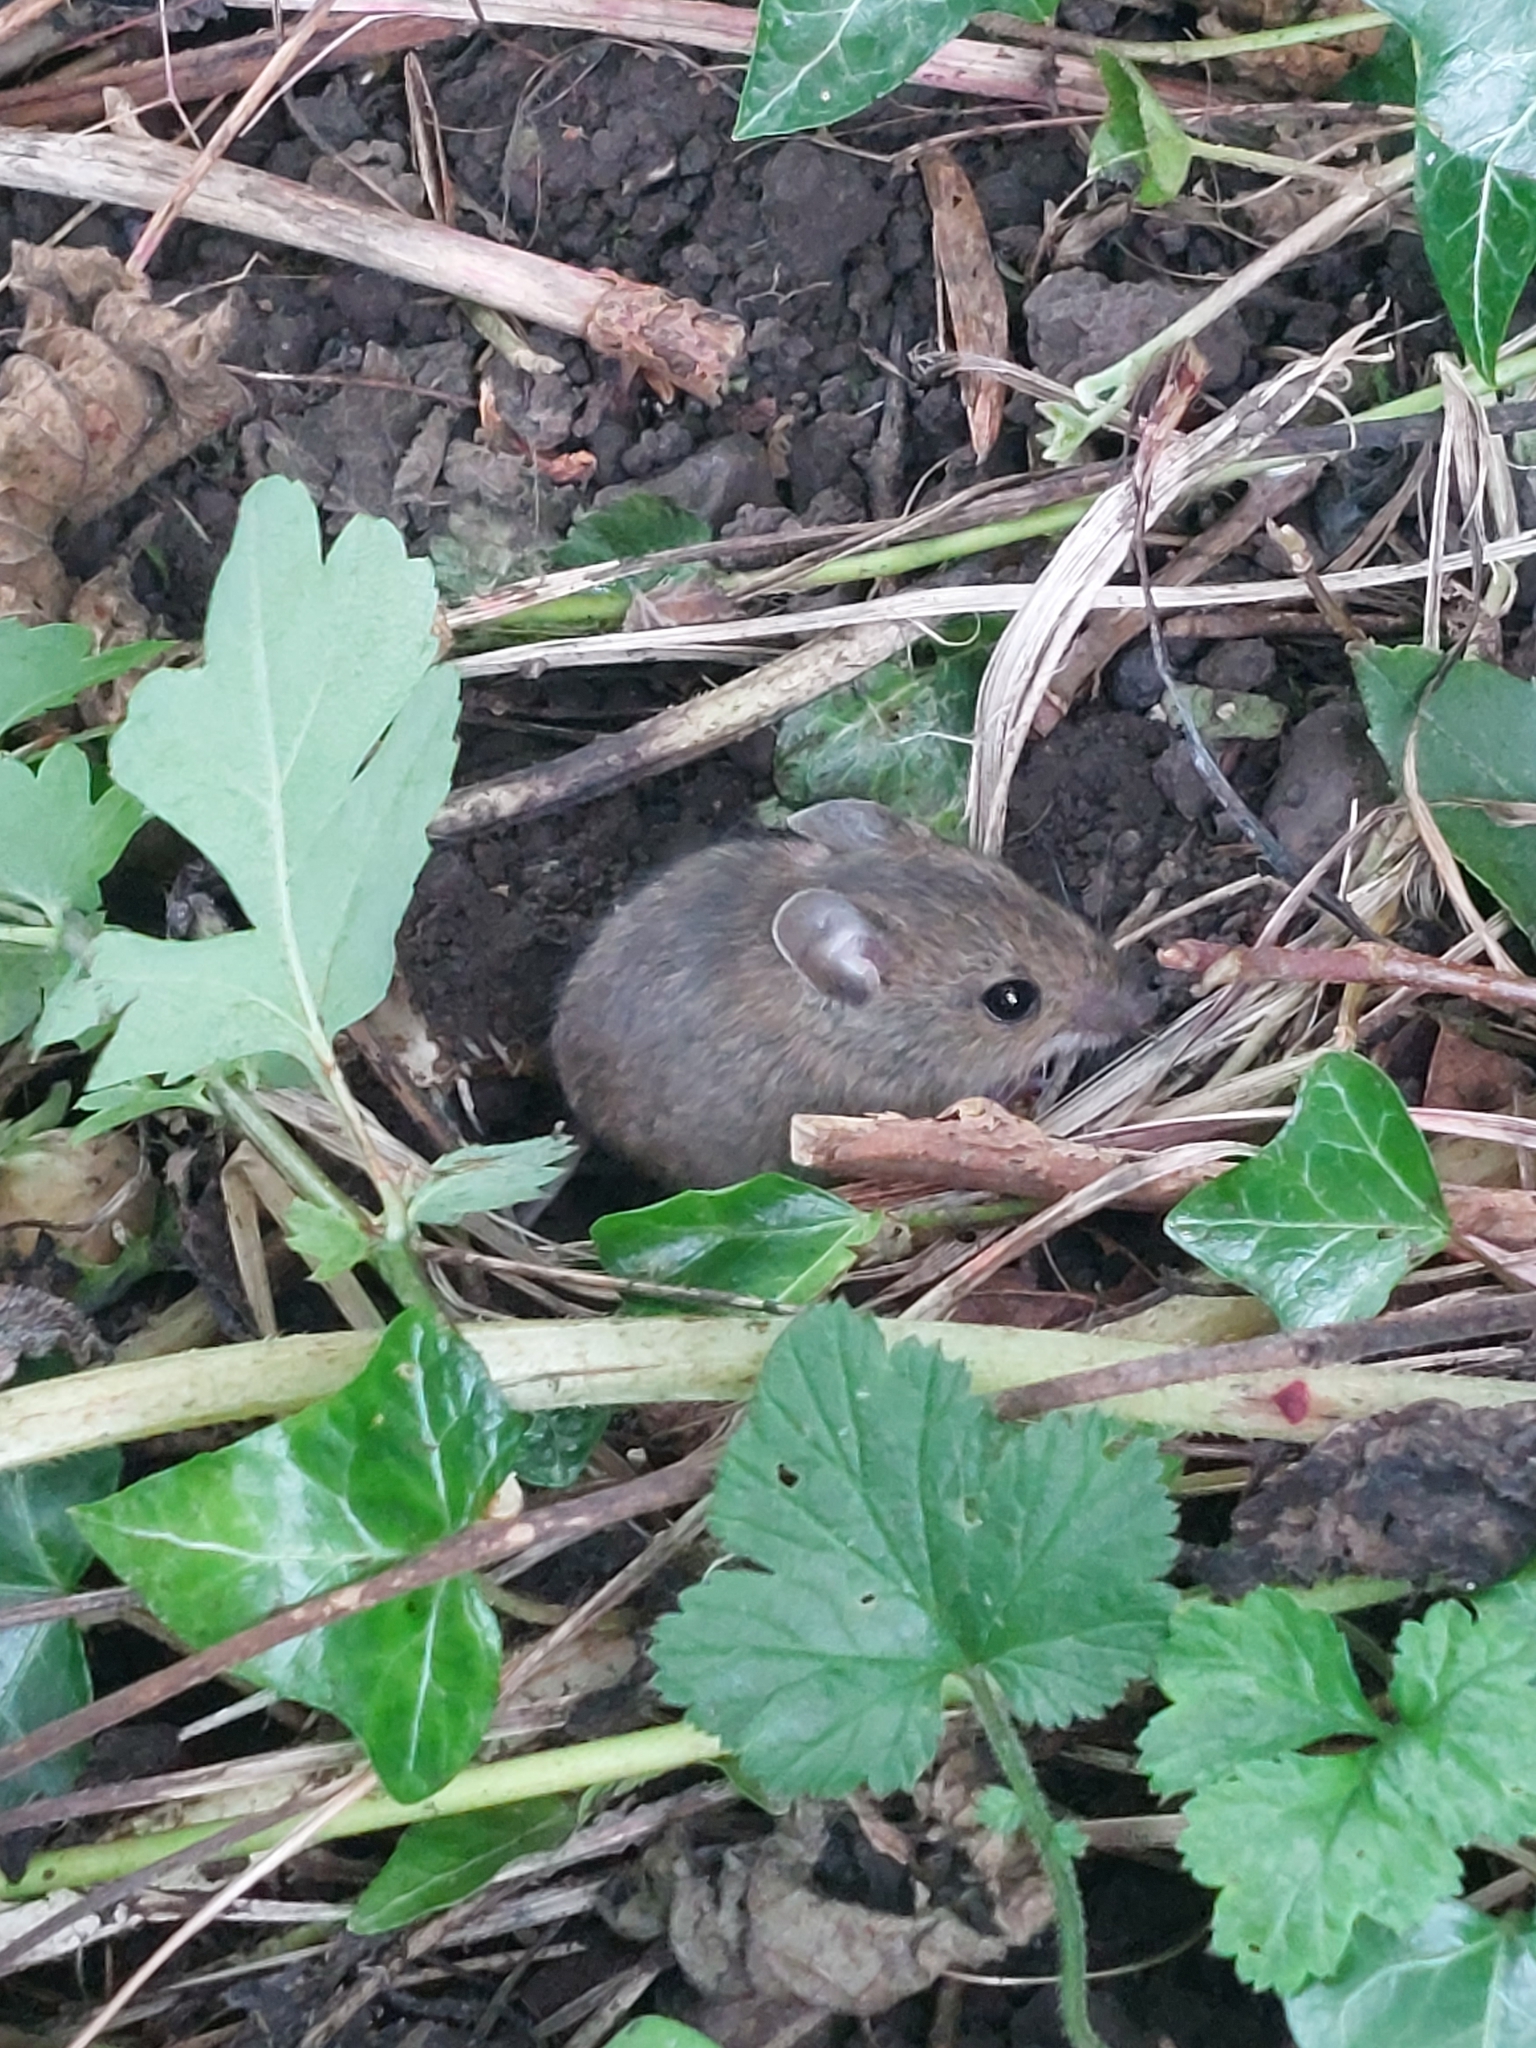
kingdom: Animalia
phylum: Chordata
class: Mammalia
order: Rodentia
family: Muridae
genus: Apodemus
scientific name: Apodemus sylvaticus
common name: Wood mouse
